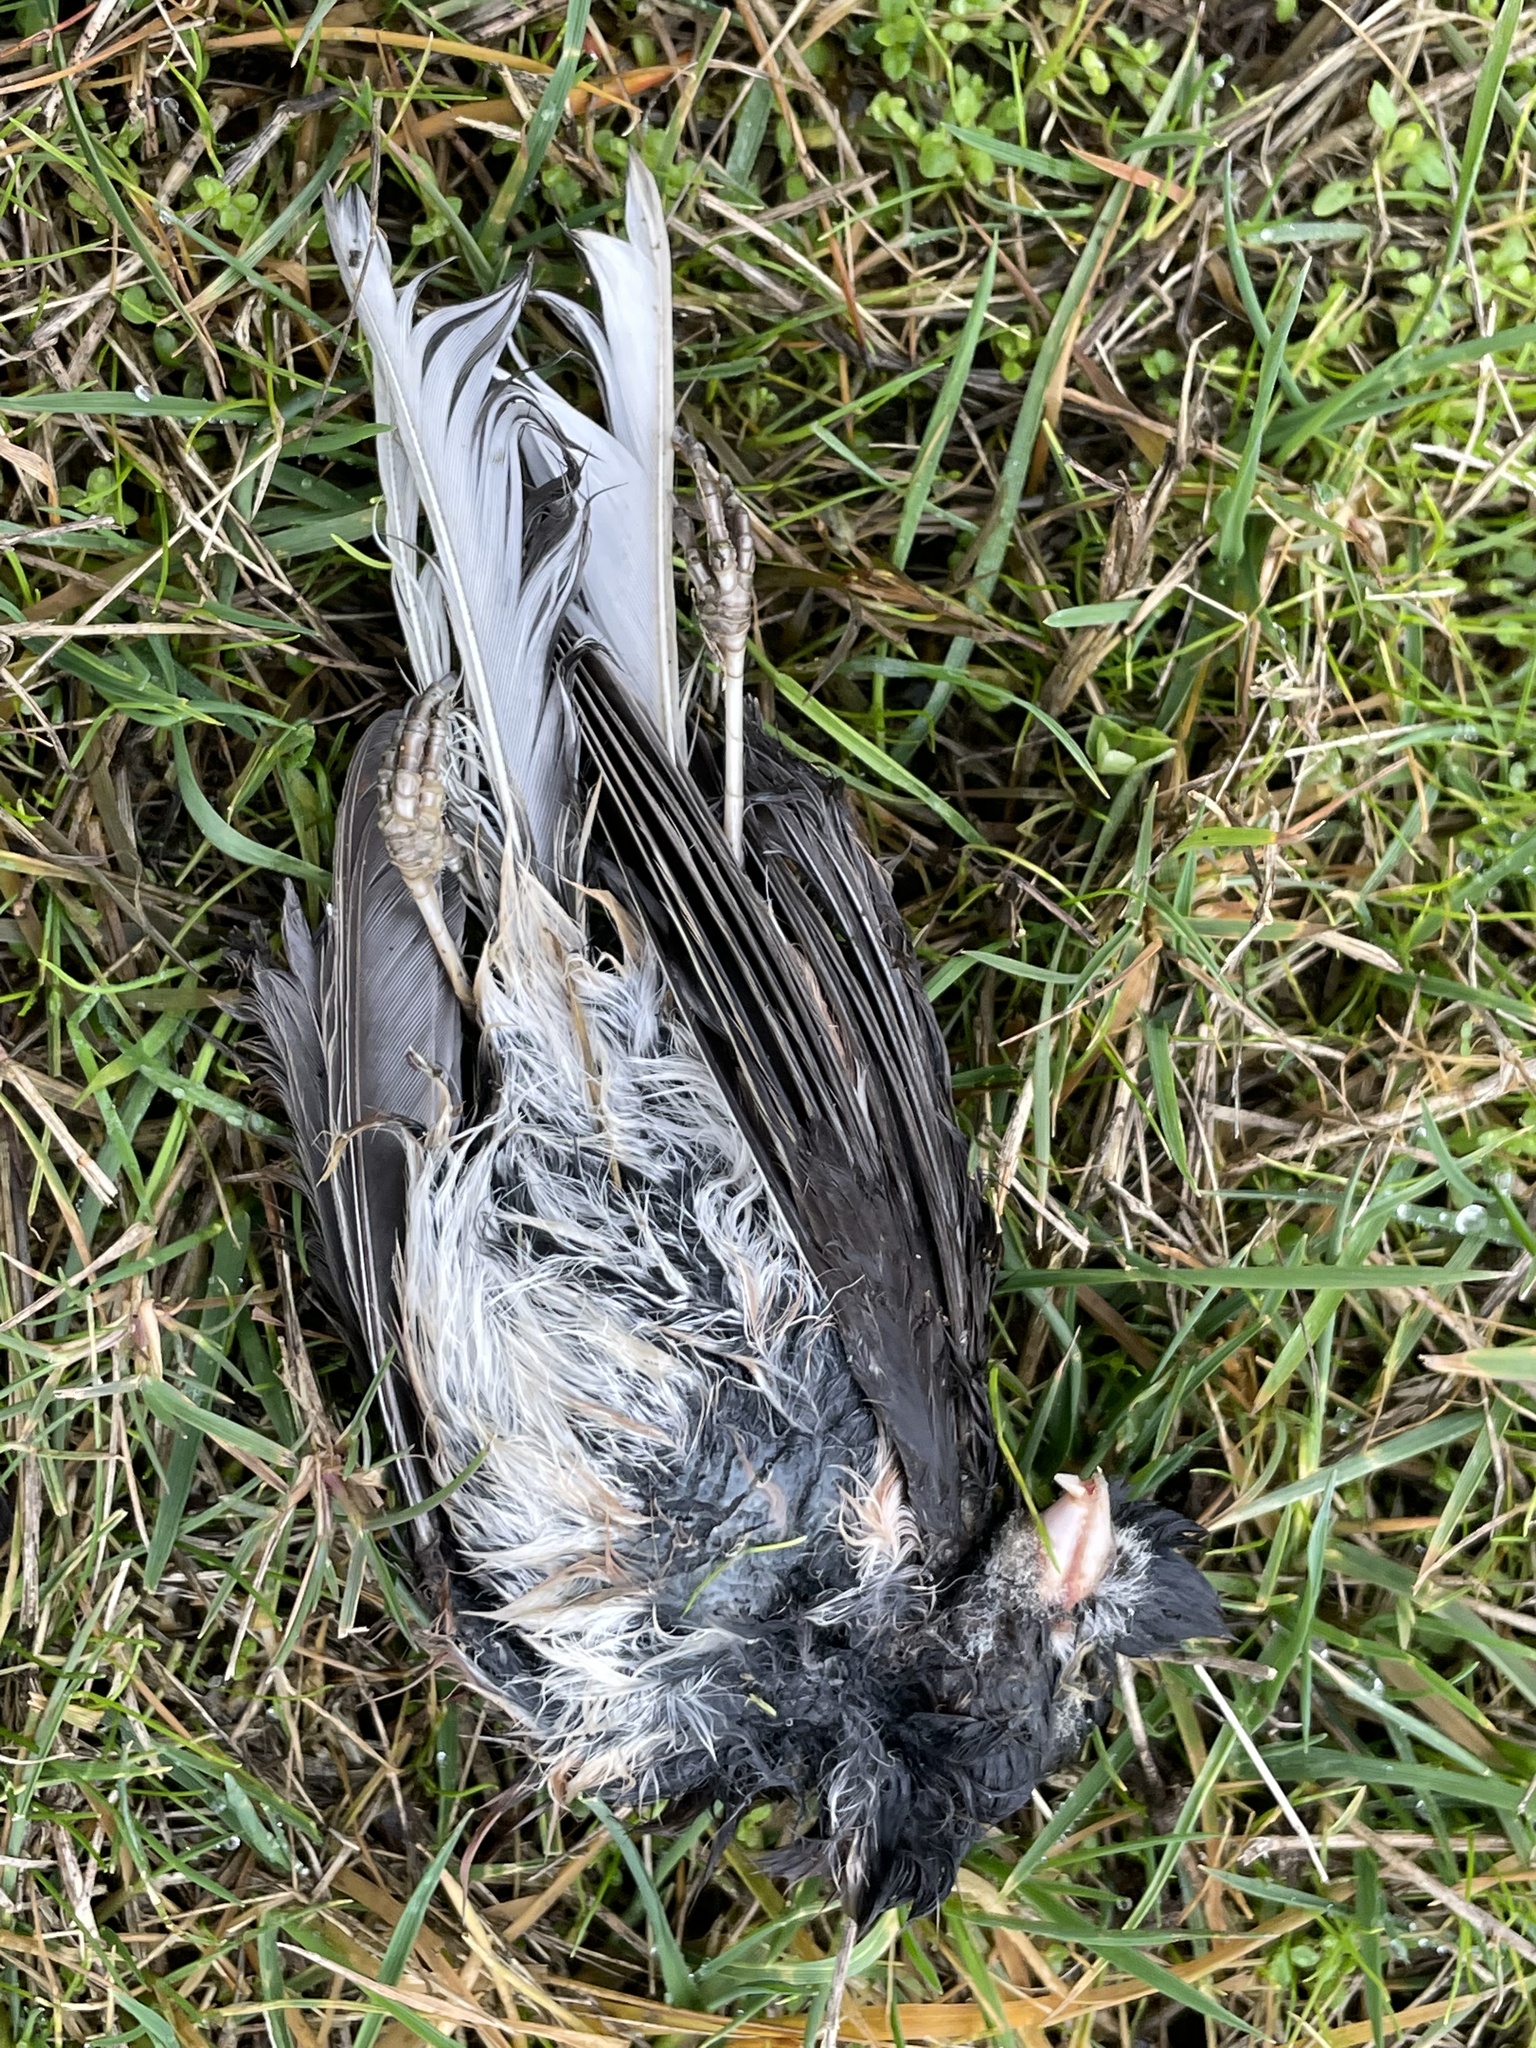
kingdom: Animalia
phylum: Chordata
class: Aves
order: Passeriformes
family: Passerellidae
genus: Junco
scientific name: Junco hyemalis
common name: Dark-eyed junco
